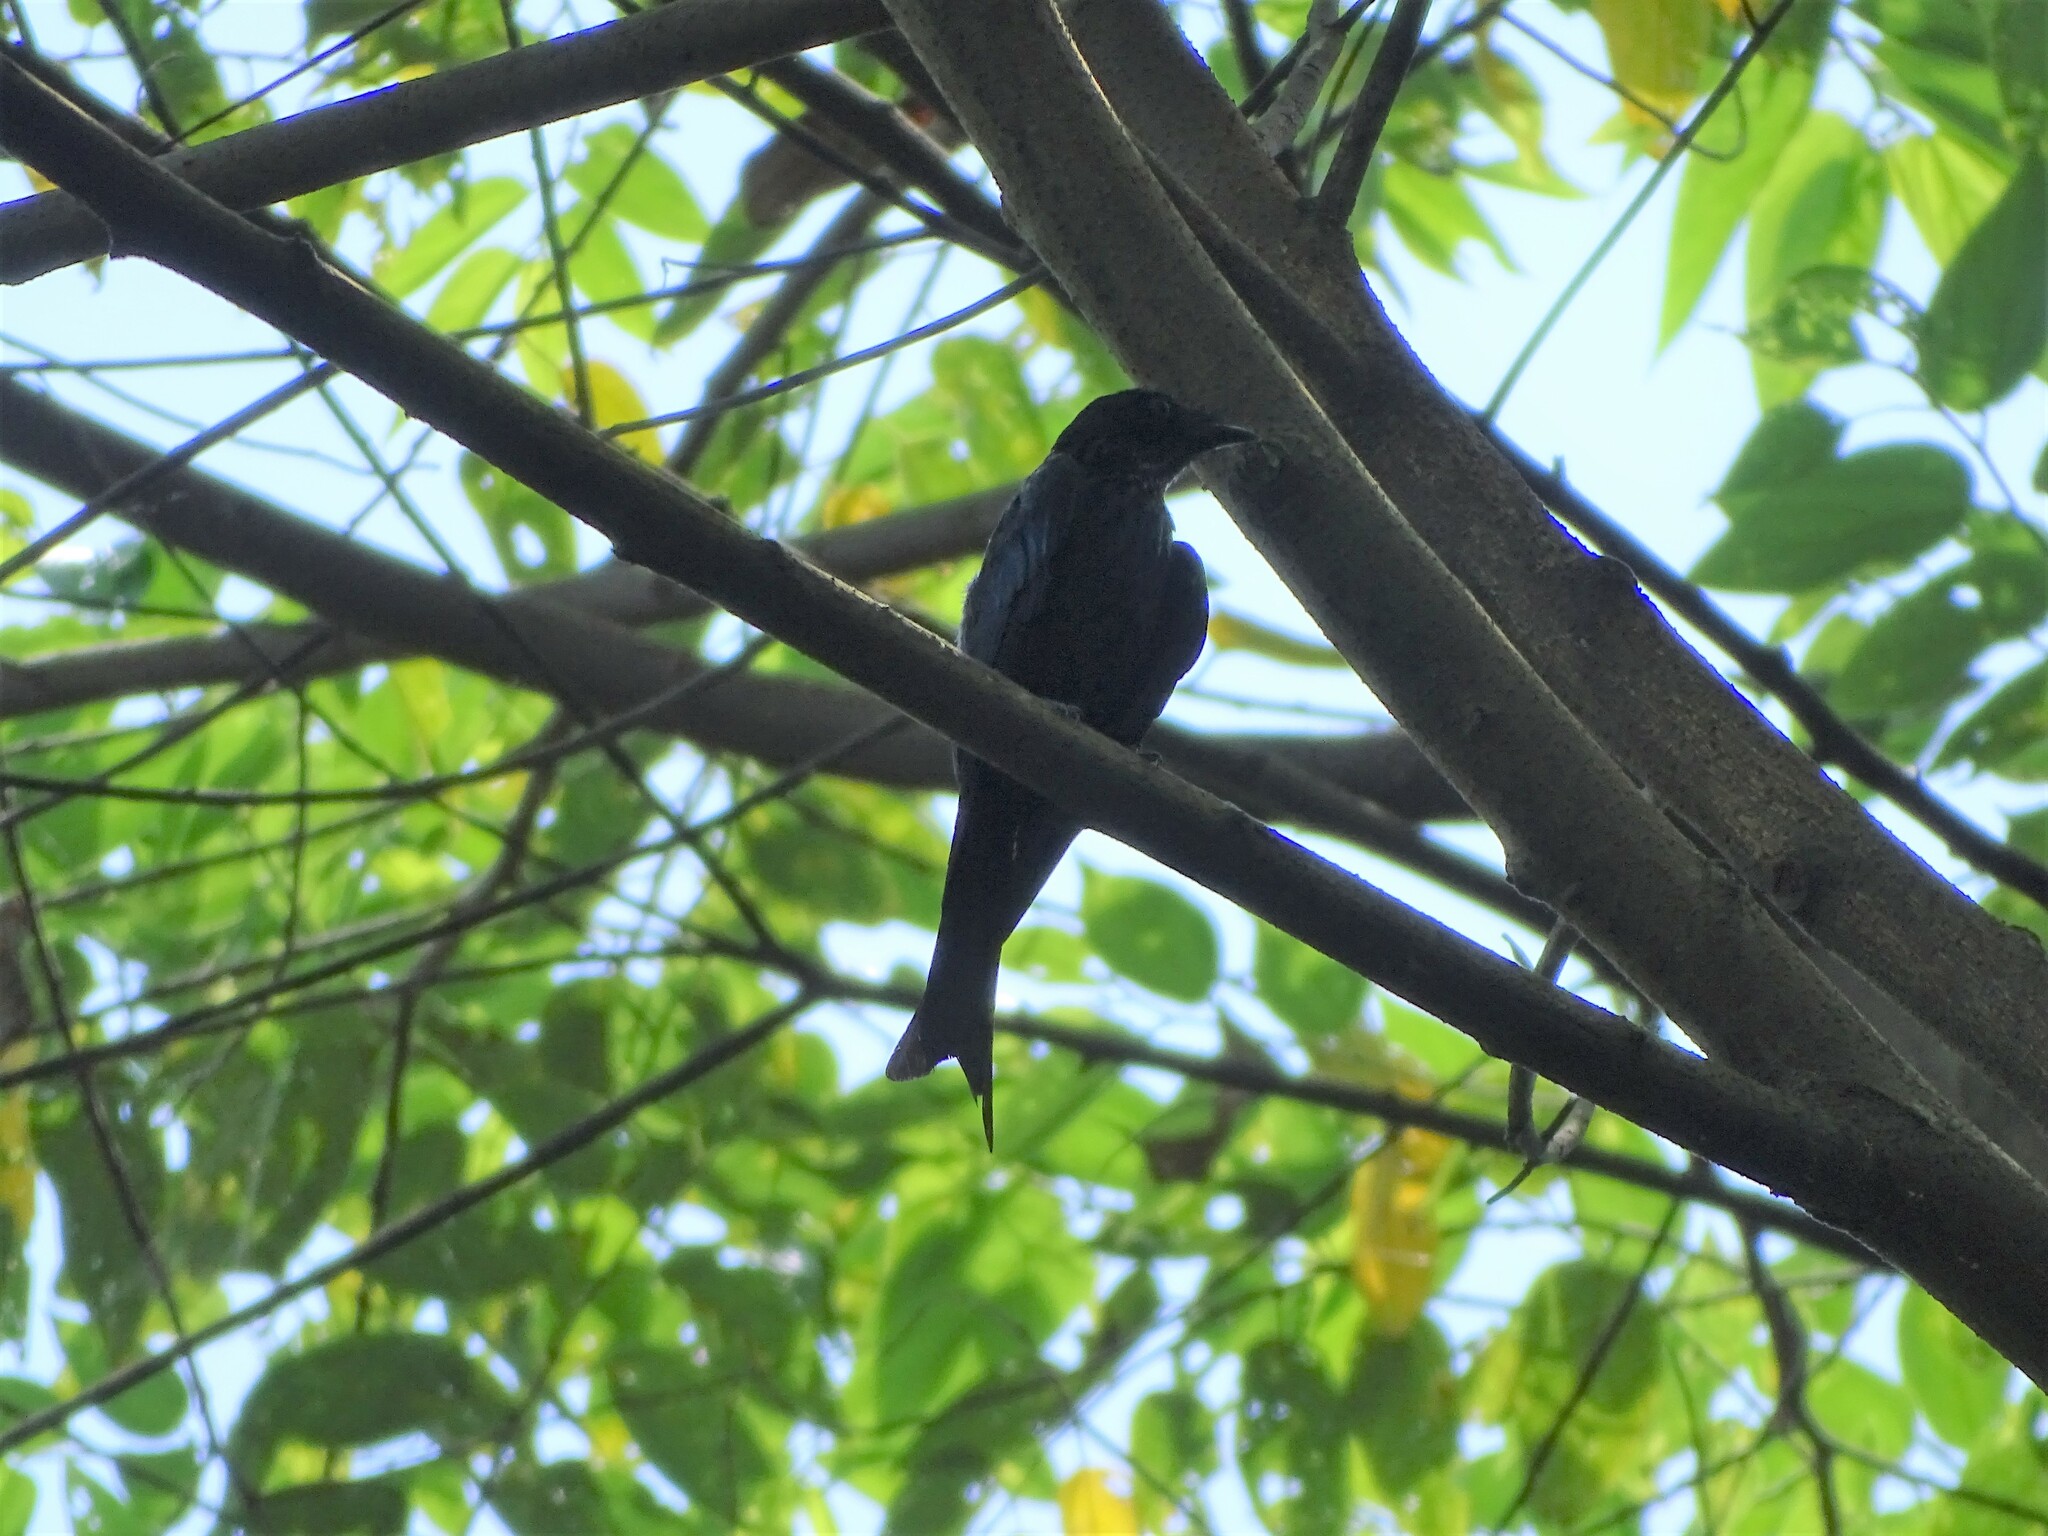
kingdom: Animalia
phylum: Chordata
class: Aves
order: Passeriformes
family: Dicruridae
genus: Dicrurus
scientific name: Dicrurus aeneus
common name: Bronzed drongo
